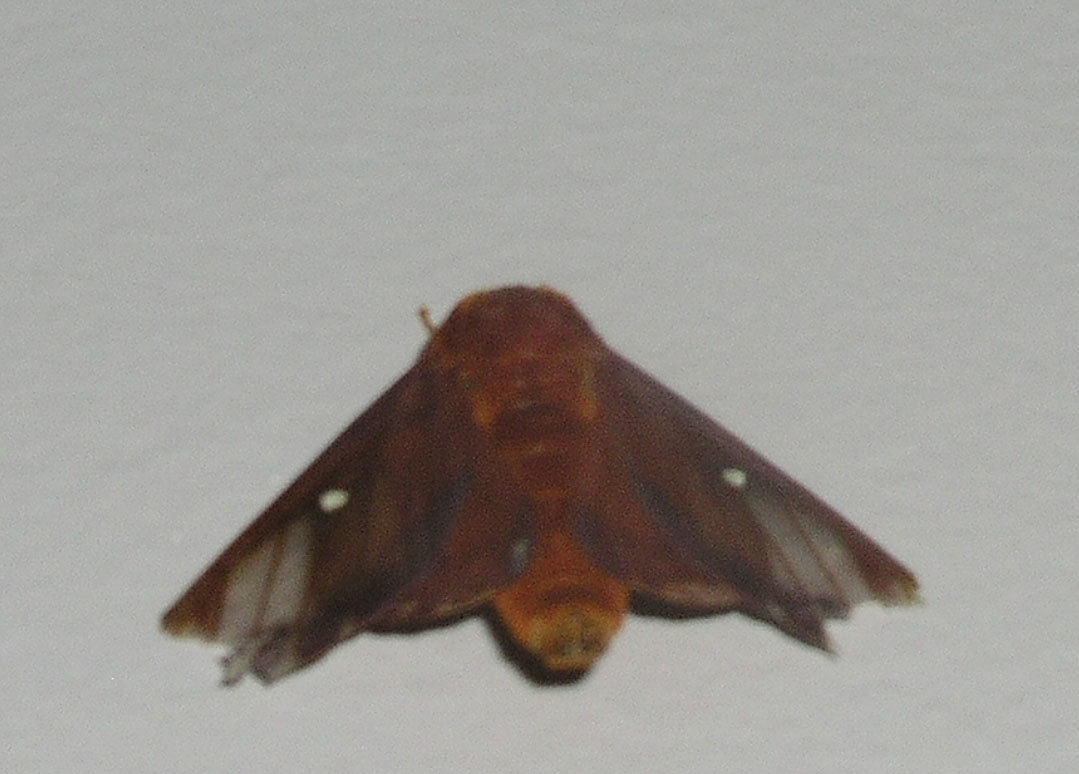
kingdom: Animalia
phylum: Arthropoda
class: Insecta
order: Lepidoptera
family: Saturniidae
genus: Anisota
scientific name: Anisota virginiensis
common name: Pink striped oakworm moth
